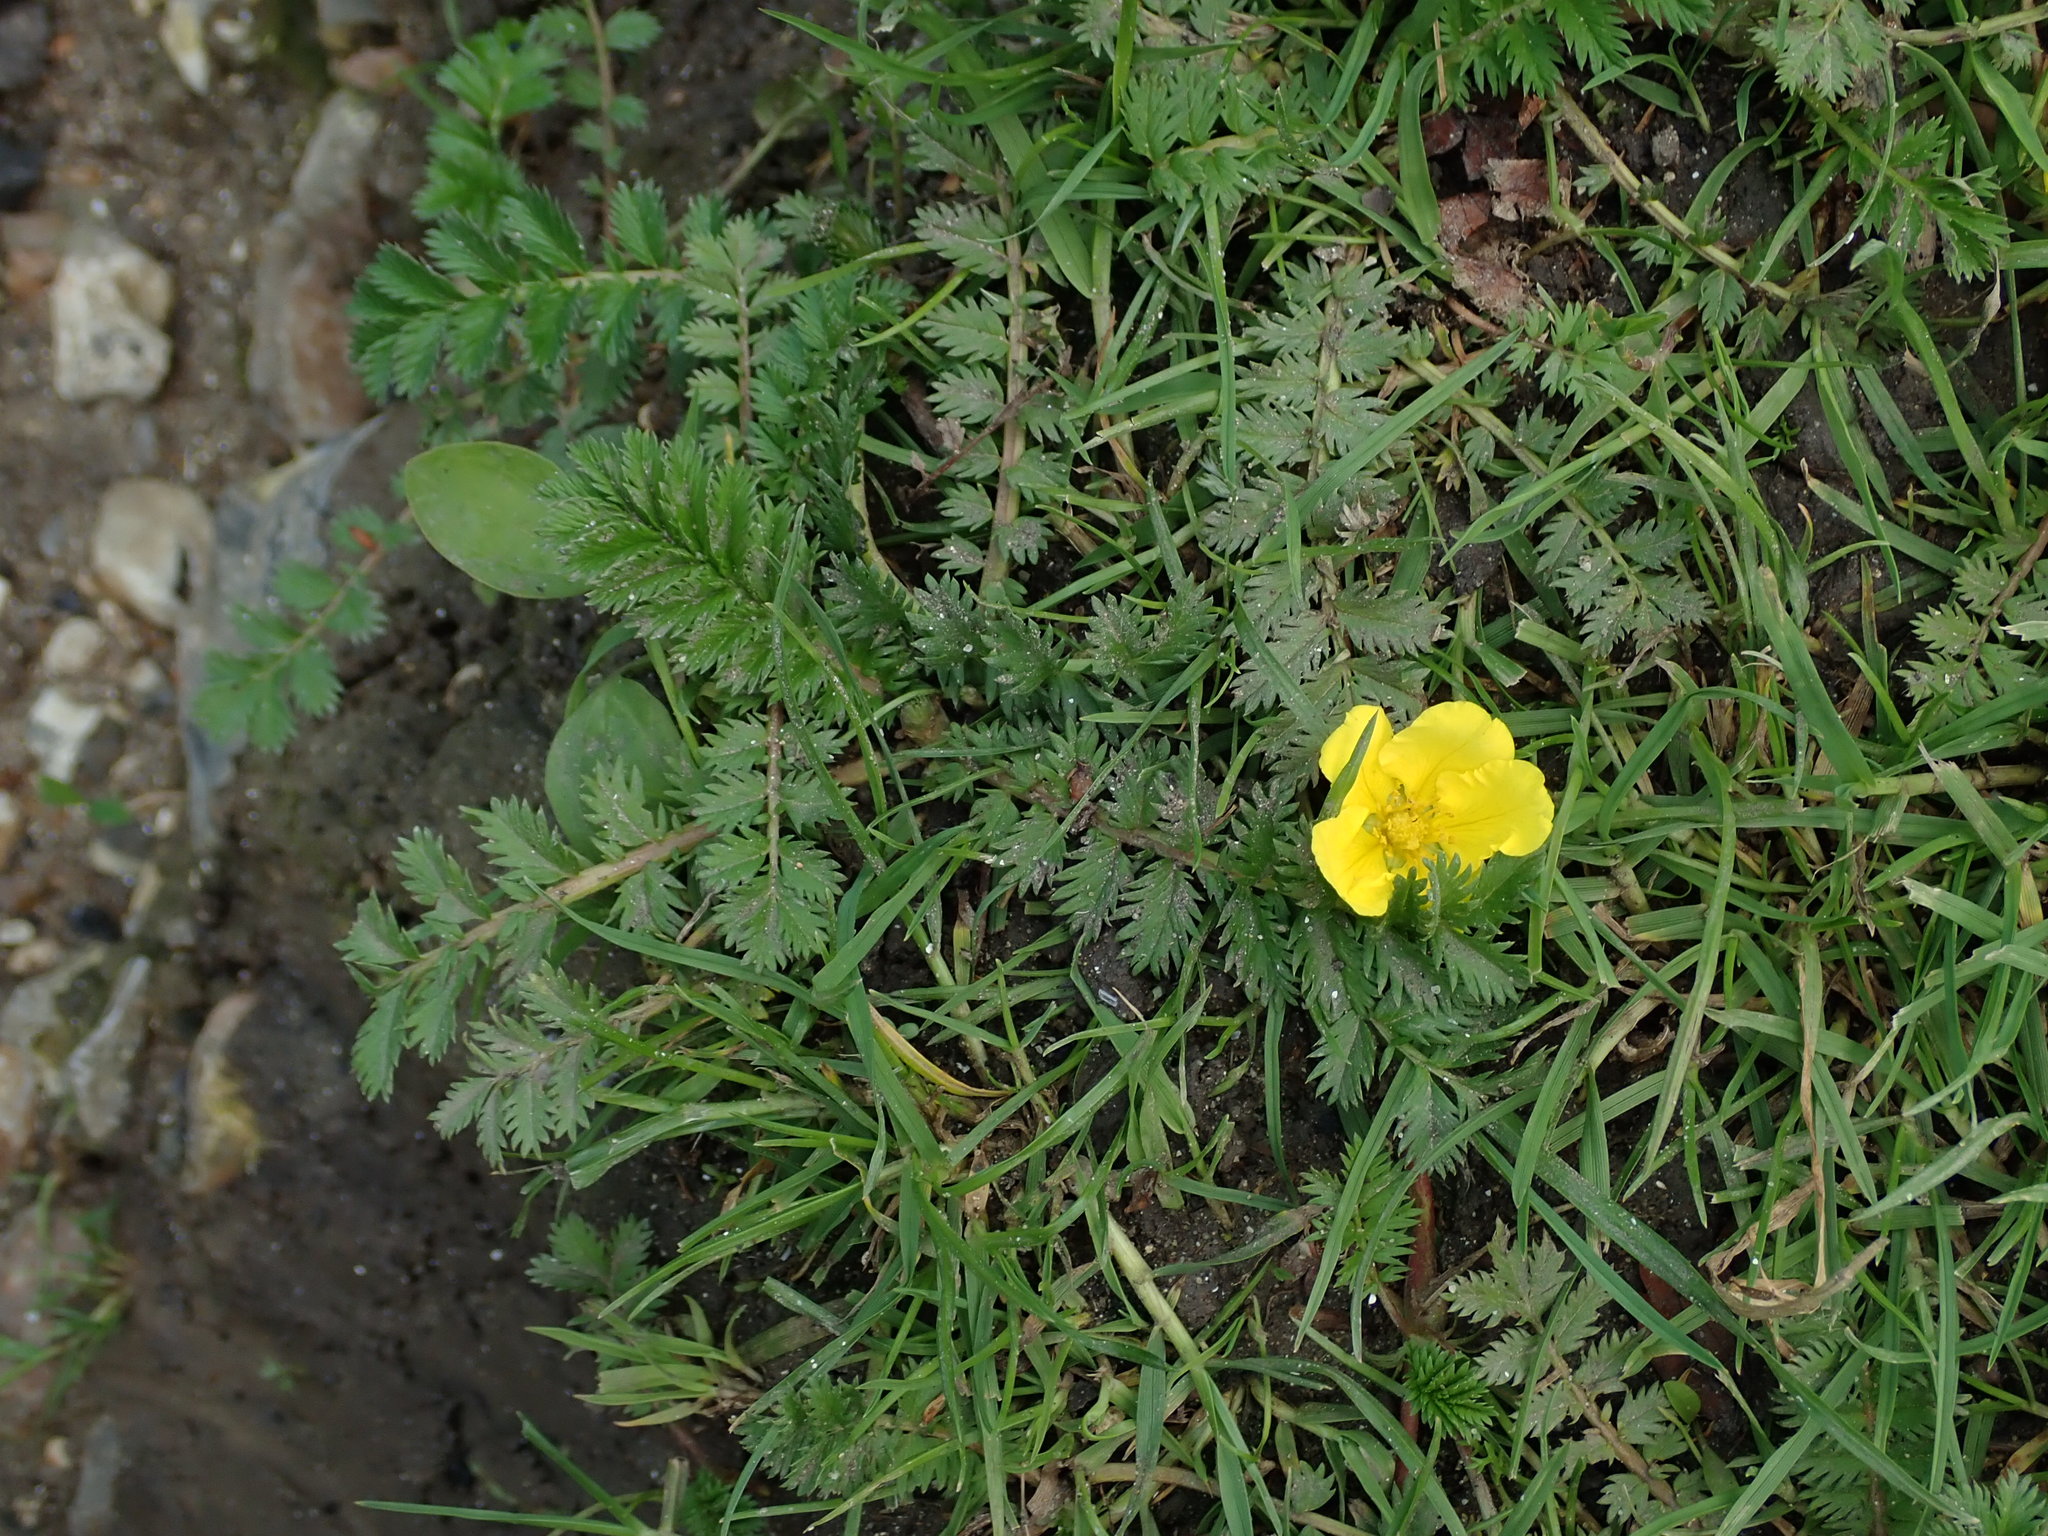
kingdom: Plantae
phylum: Tracheophyta
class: Magnoliopsida
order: Rosales
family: Rosaceae
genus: Argentina
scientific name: Argentina anserina
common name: Common silverweed
